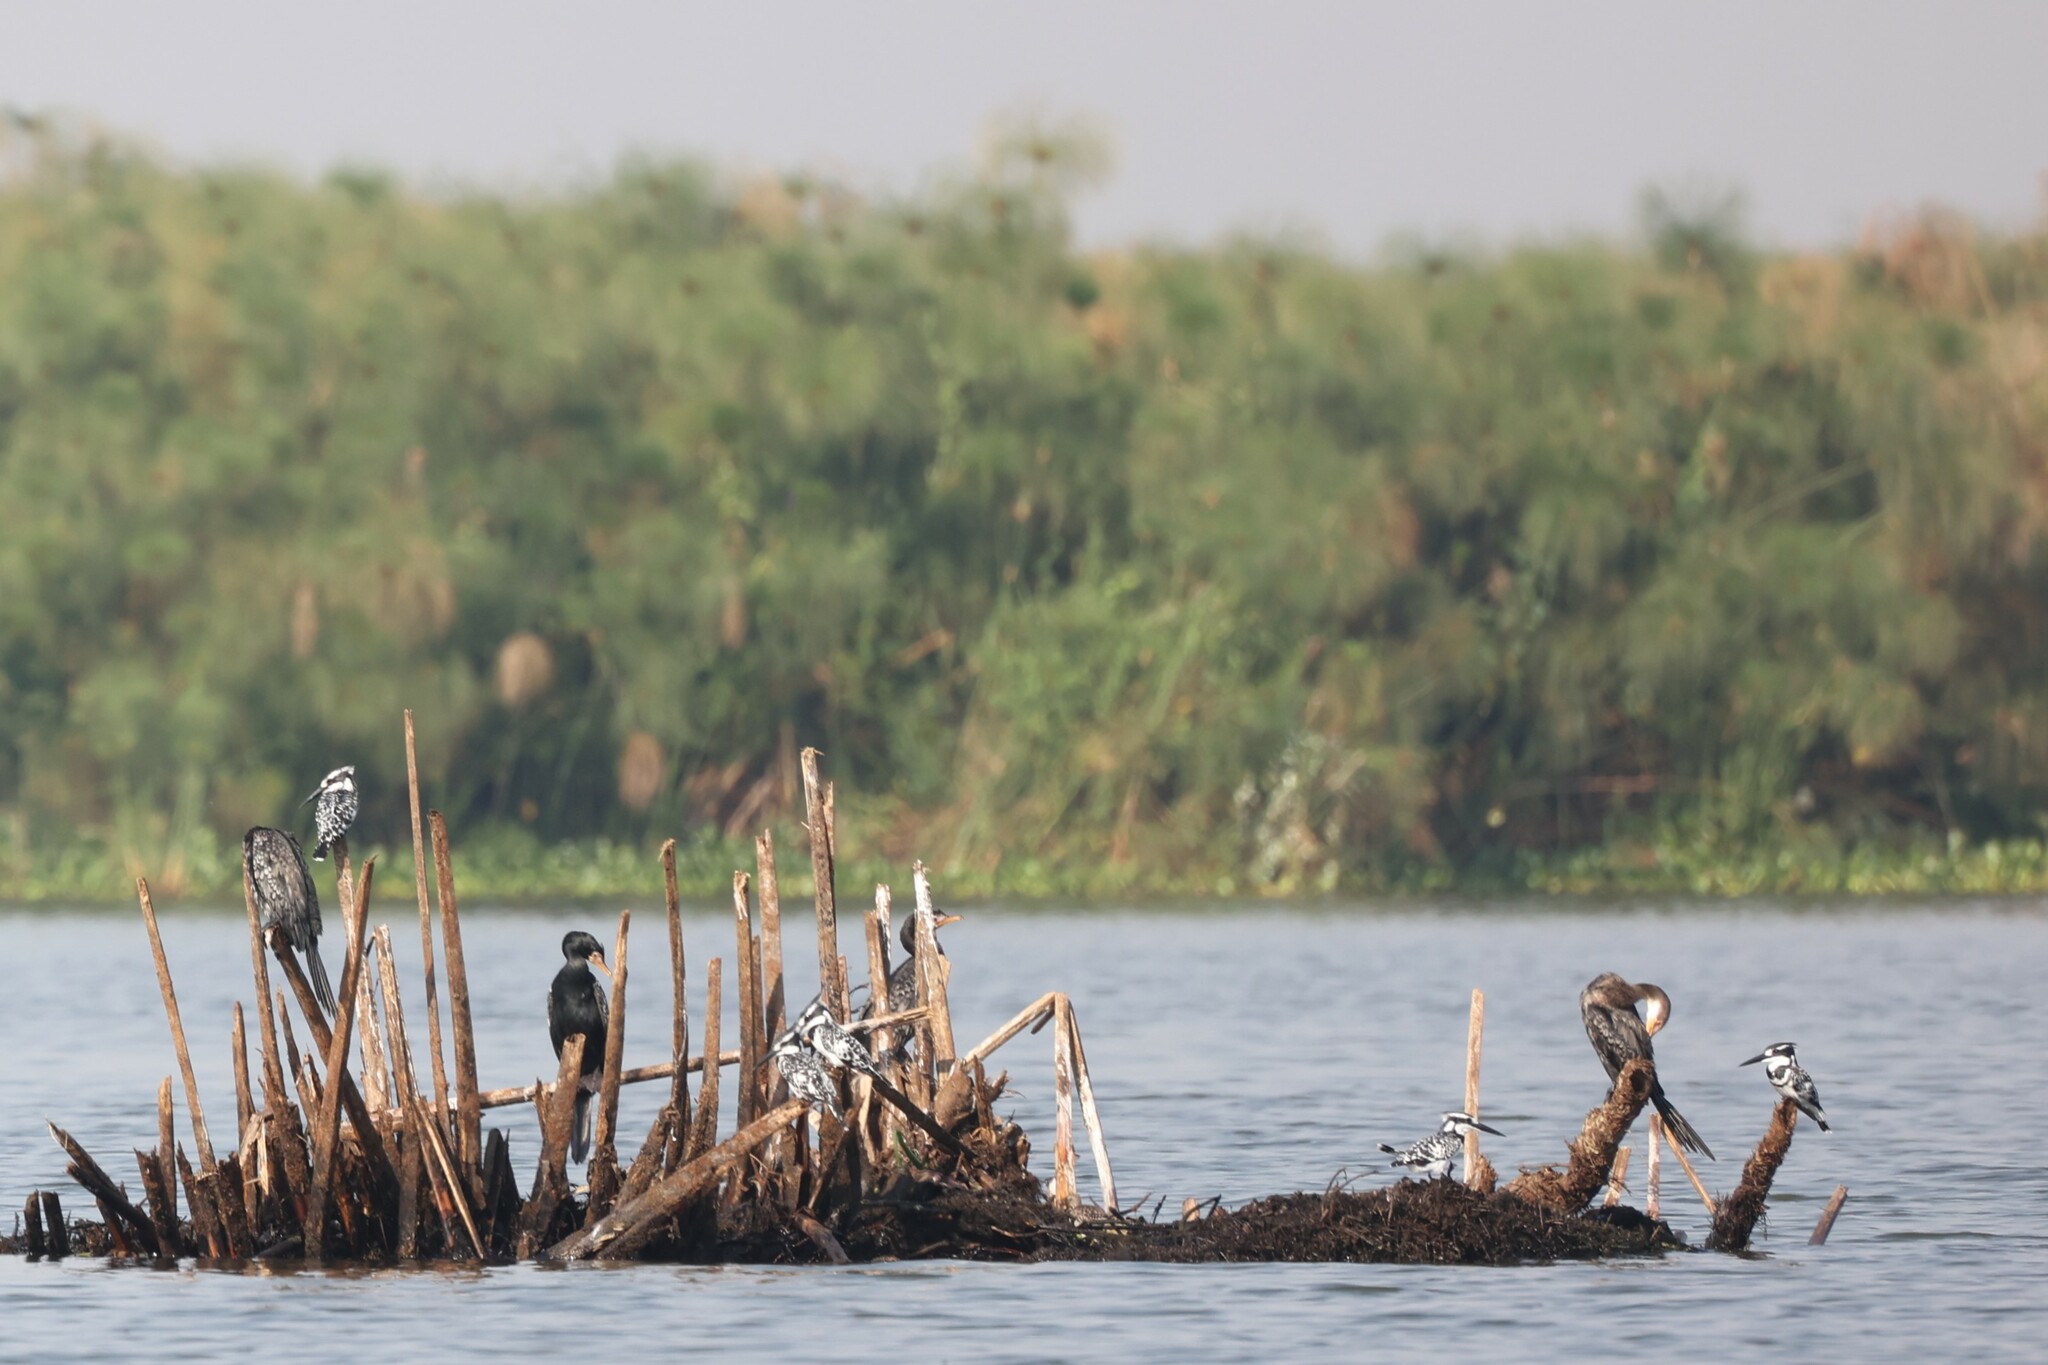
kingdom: Animalia
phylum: Chordata
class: Aves
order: Suliformes
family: Phalacrocoracidae
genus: Microcarbo
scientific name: Microcarbo africanus
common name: Long-tailed cormorant
